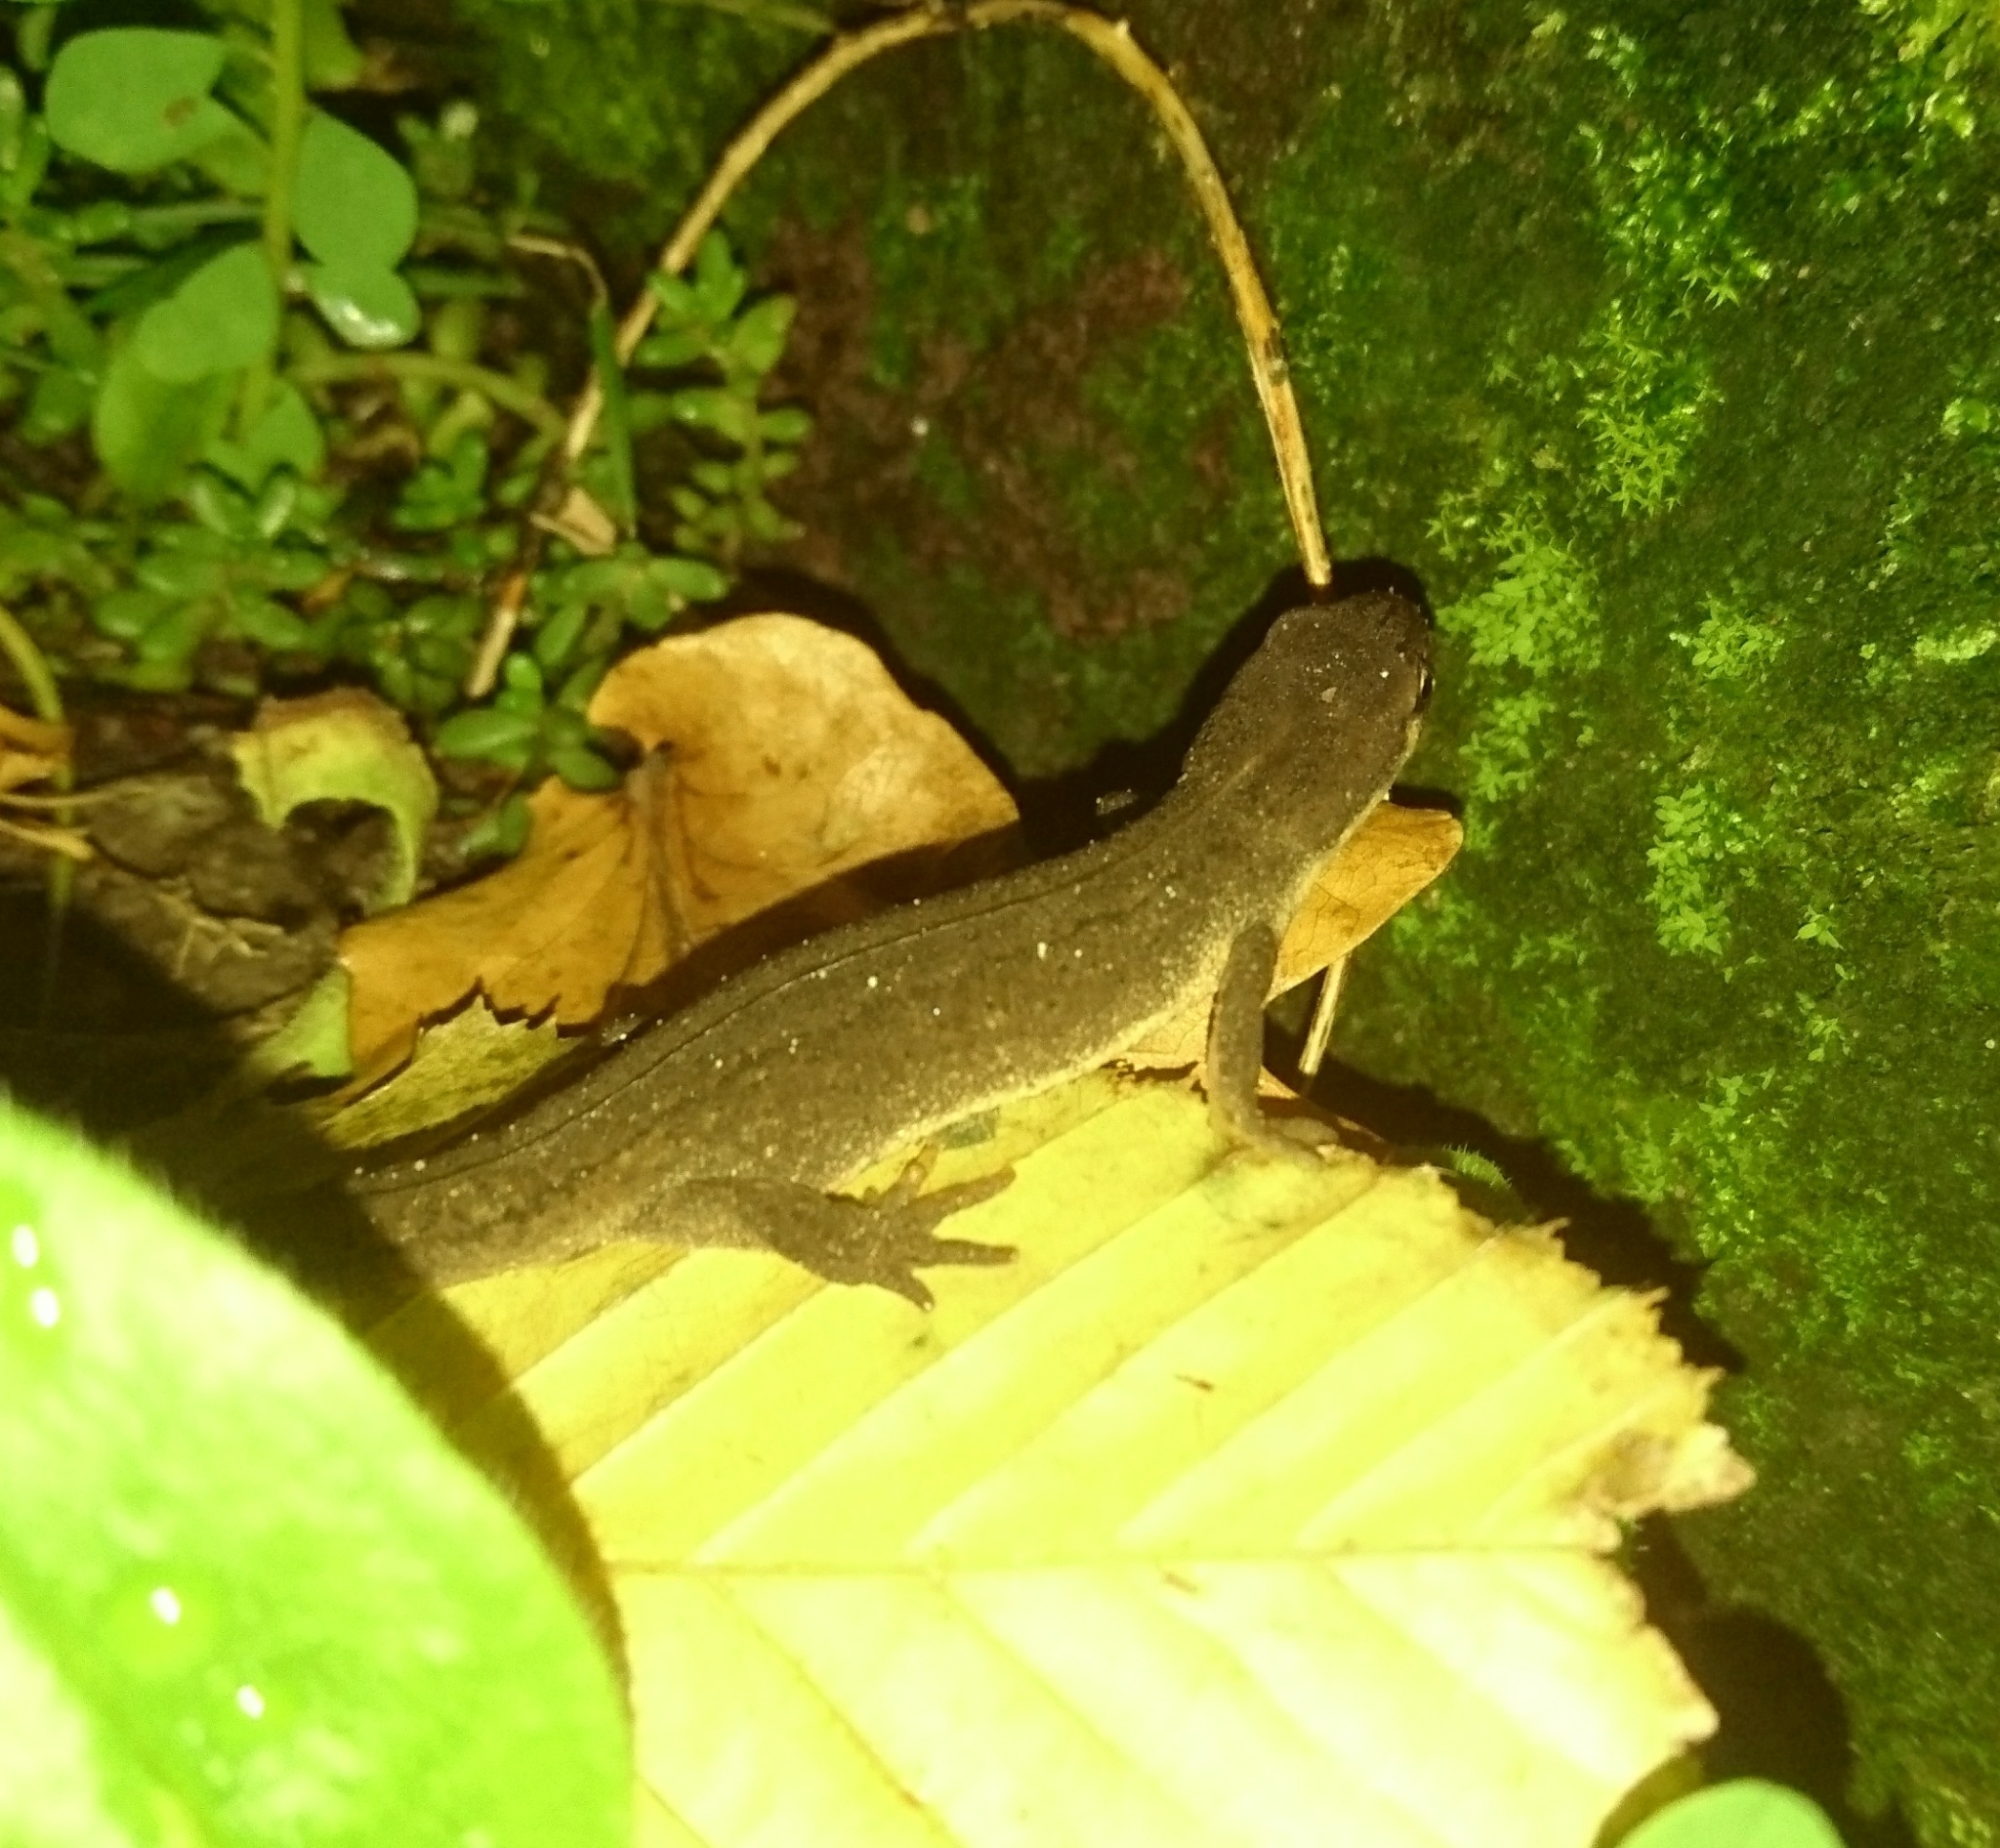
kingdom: Animalia
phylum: Chordata
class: Amphibia
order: Caudata
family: Salamandridae
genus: Lissotriton
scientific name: Lissotriton vulgaris
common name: Smooth newt
